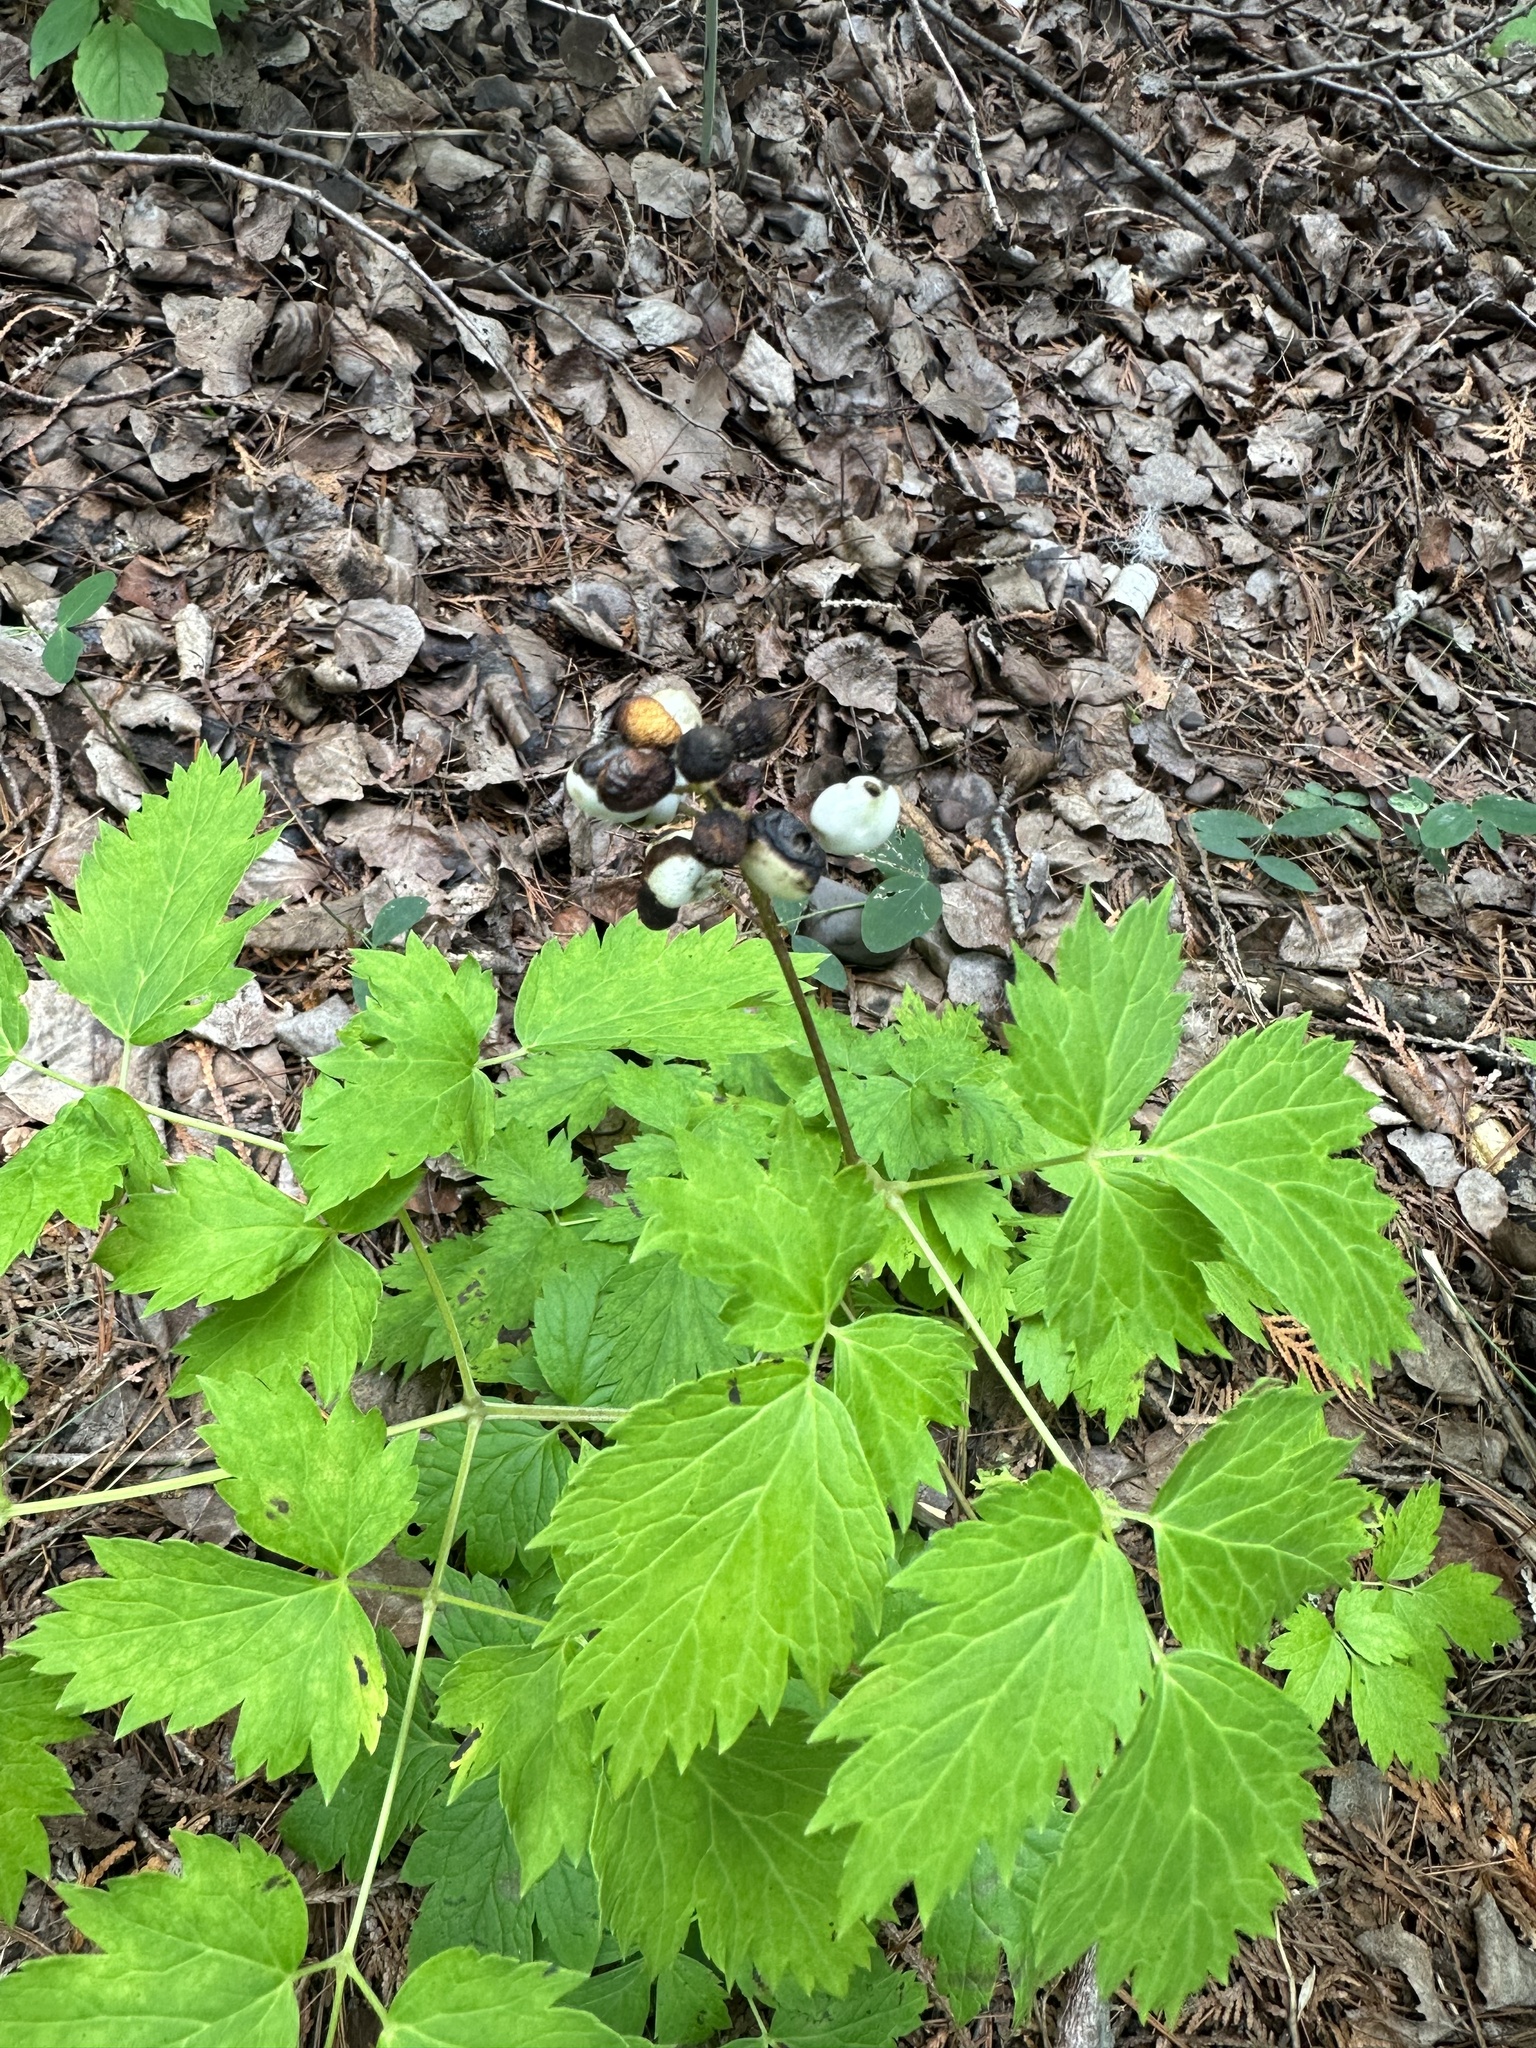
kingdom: Plantae
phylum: Tracheophyta
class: Magnoliopsida
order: Ranunculales
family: Ranunculaceae
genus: Actaea
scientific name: Actaea rubra
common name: Red baneberry
